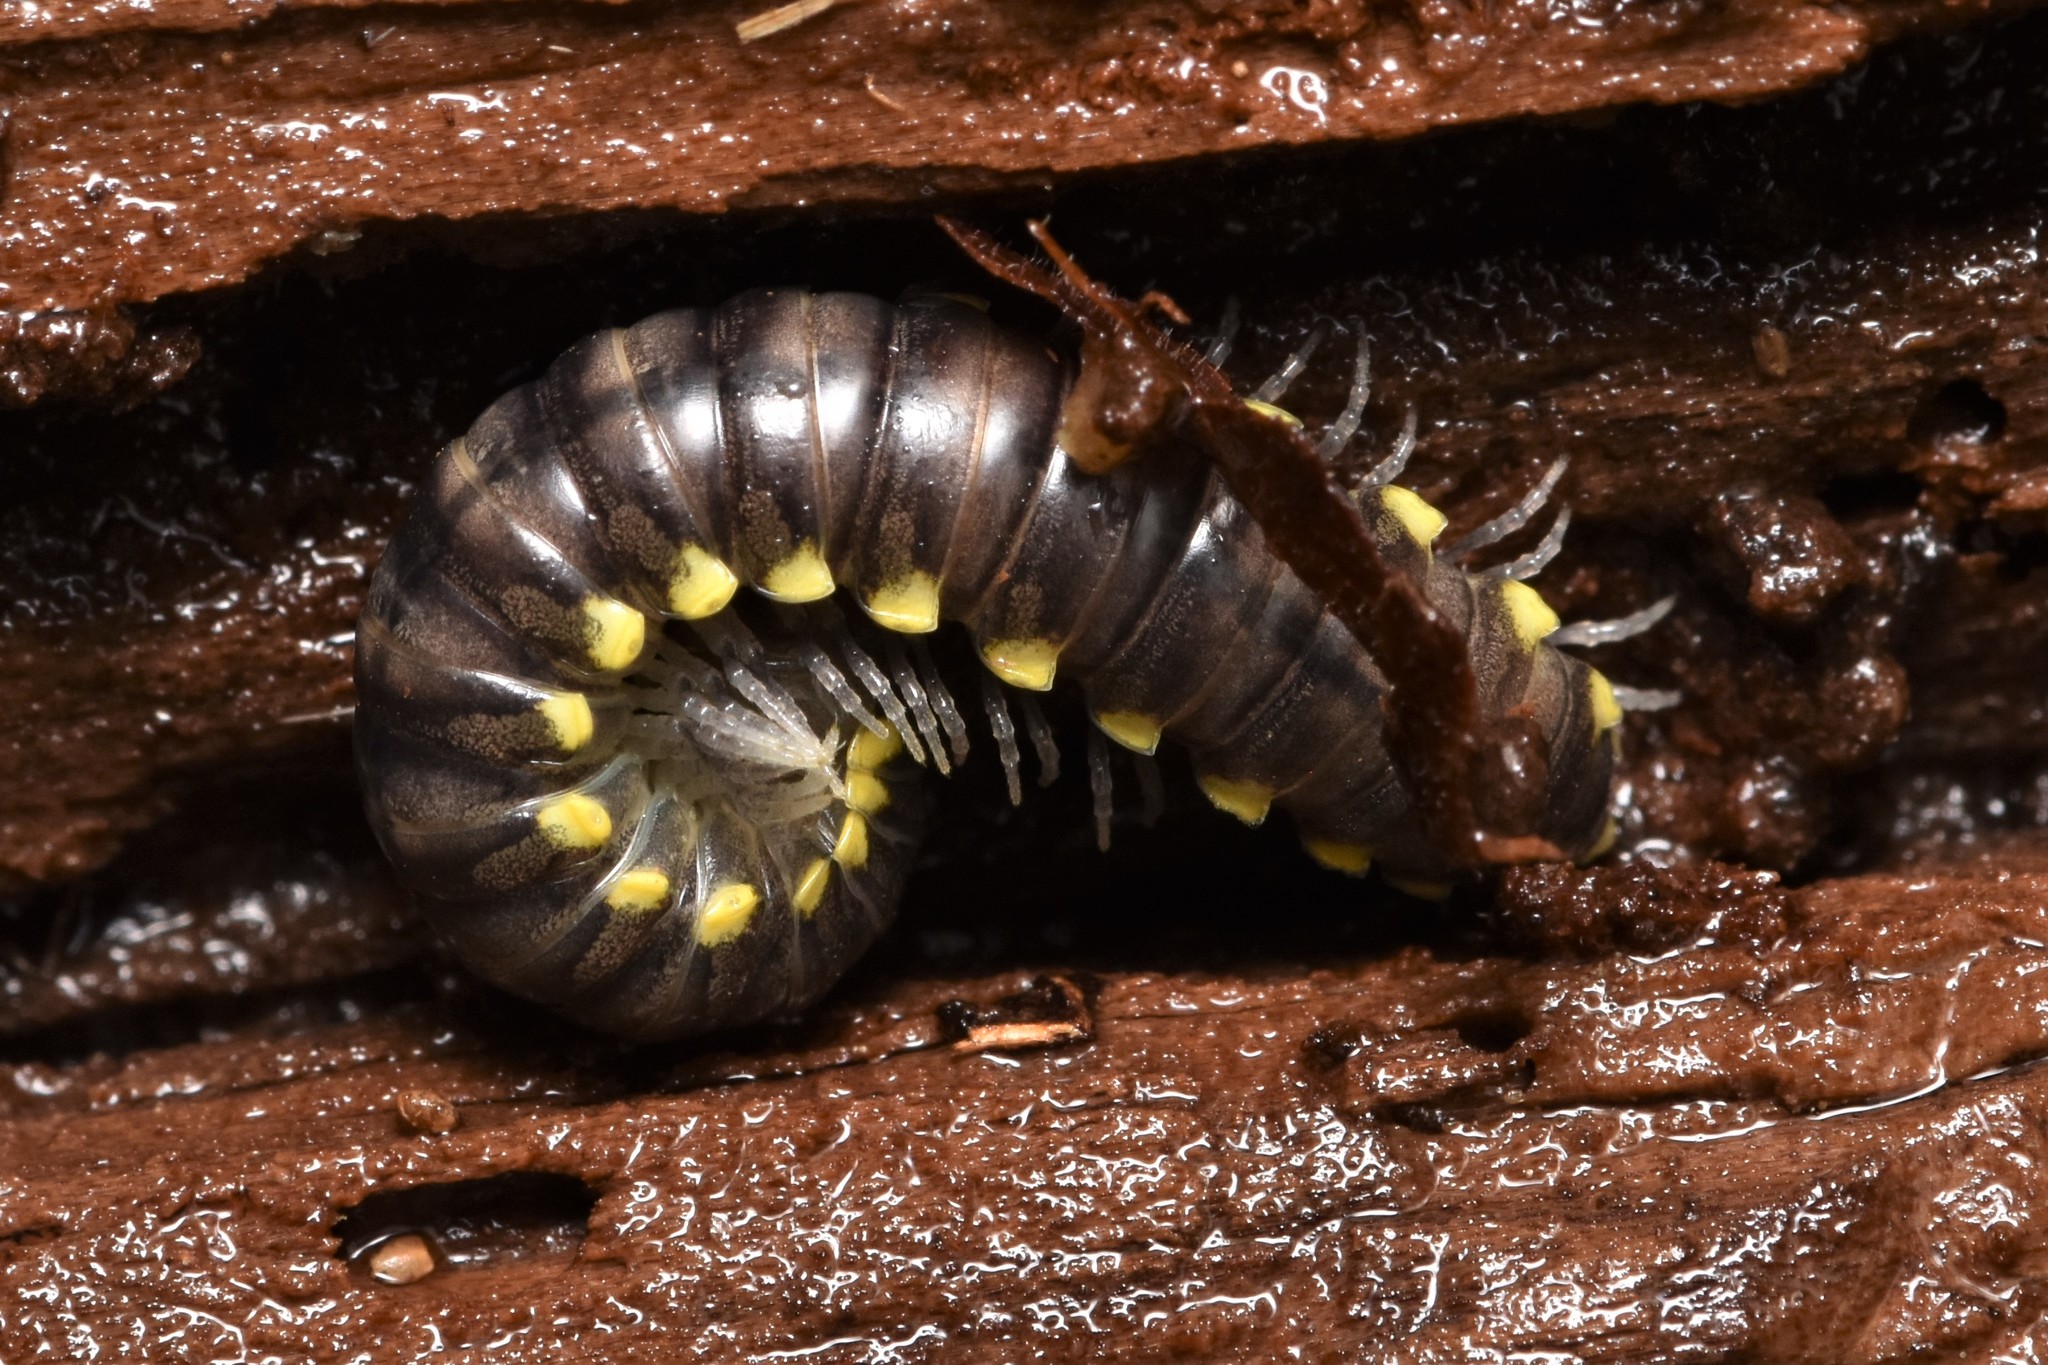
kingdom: Animalia
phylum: Arthropoda
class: Diplopoda
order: Polydesmida
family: Xystodesmidae
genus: Harpaphe
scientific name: Harpaphe haydeniana
